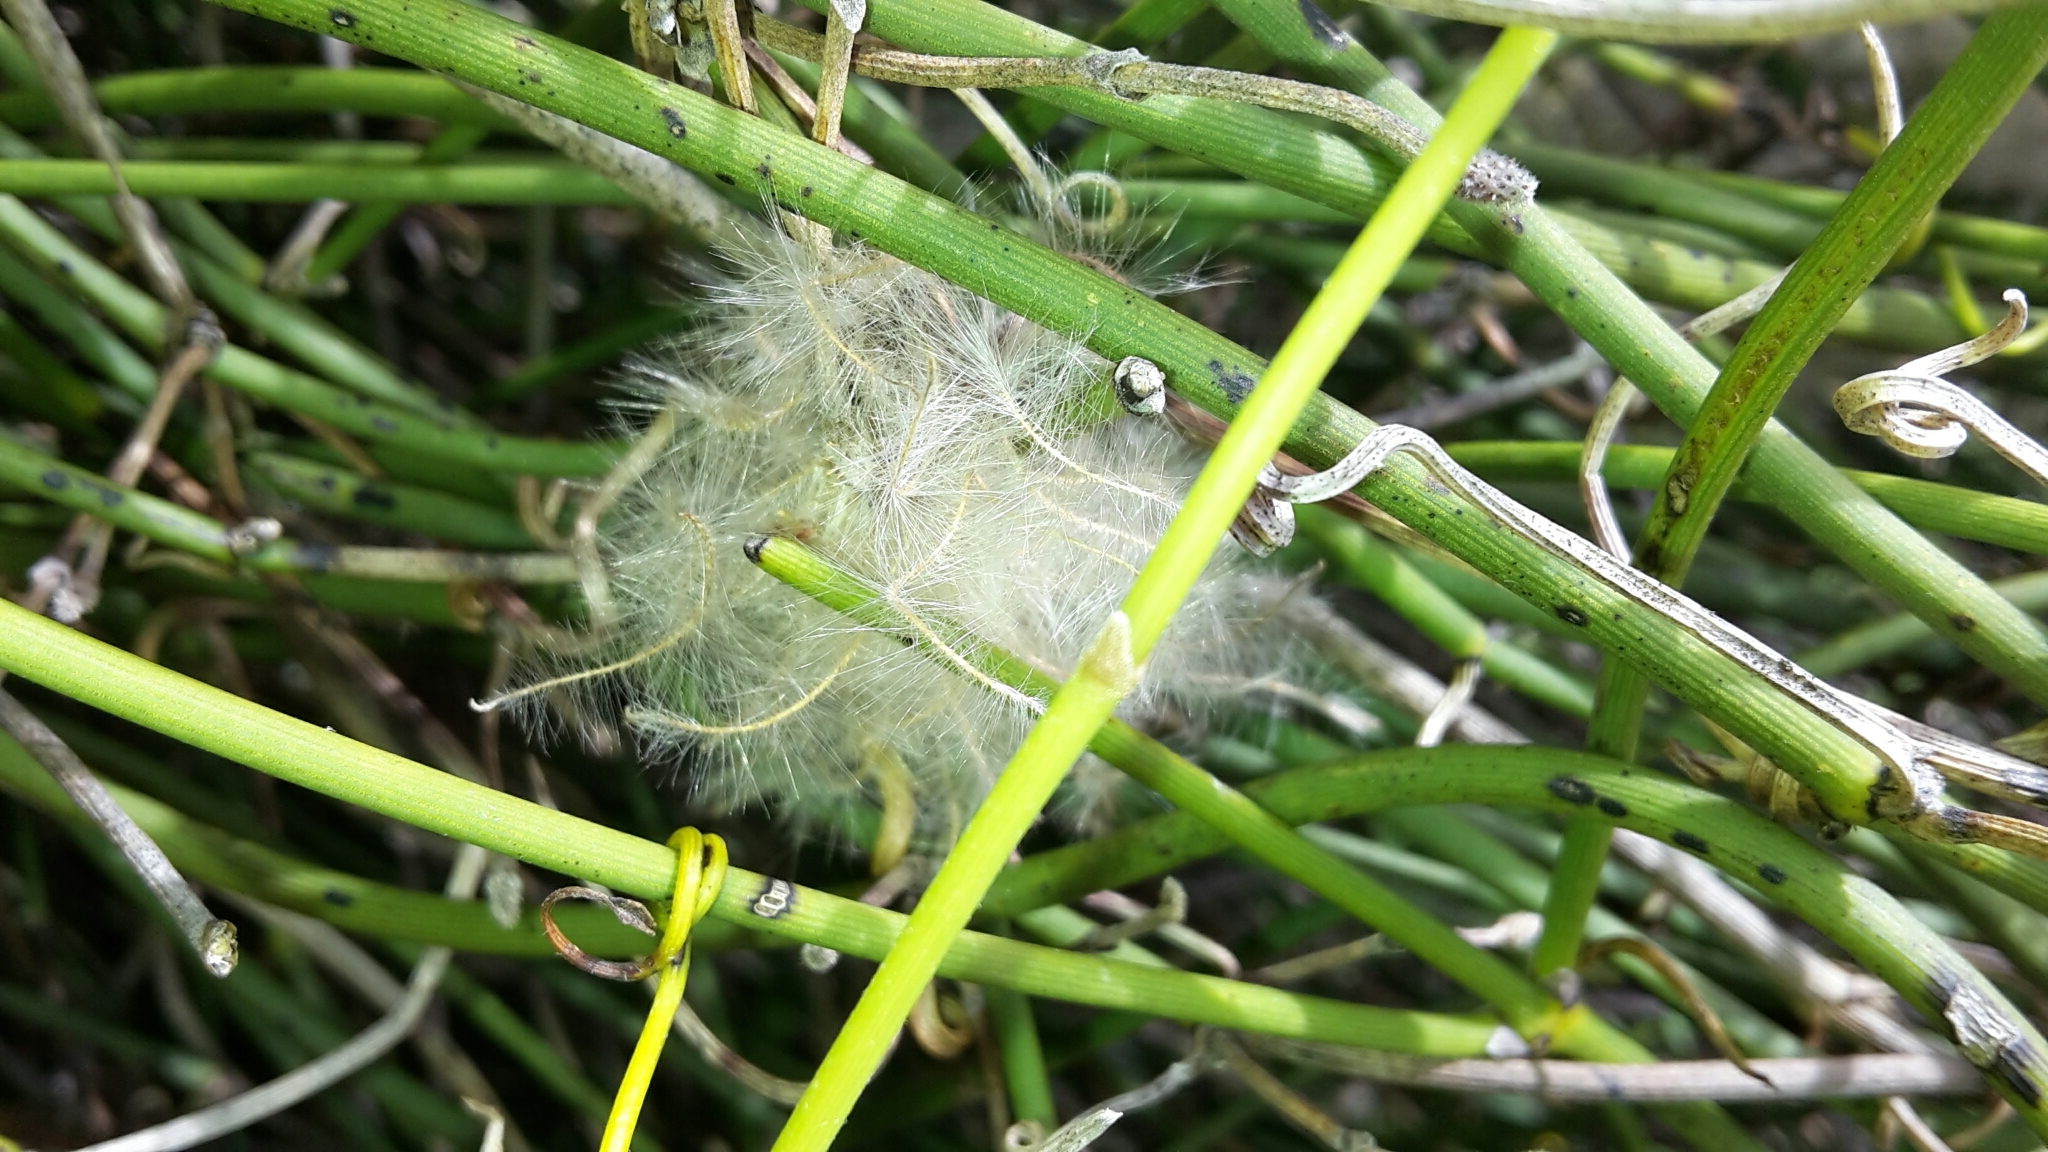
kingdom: Plantae
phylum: Tracheophyta
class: Magnoliopsida
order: Ranunculales
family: Ranunculaceae
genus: Clematis
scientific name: Clematis afoliata
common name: Rush-stem clematis
